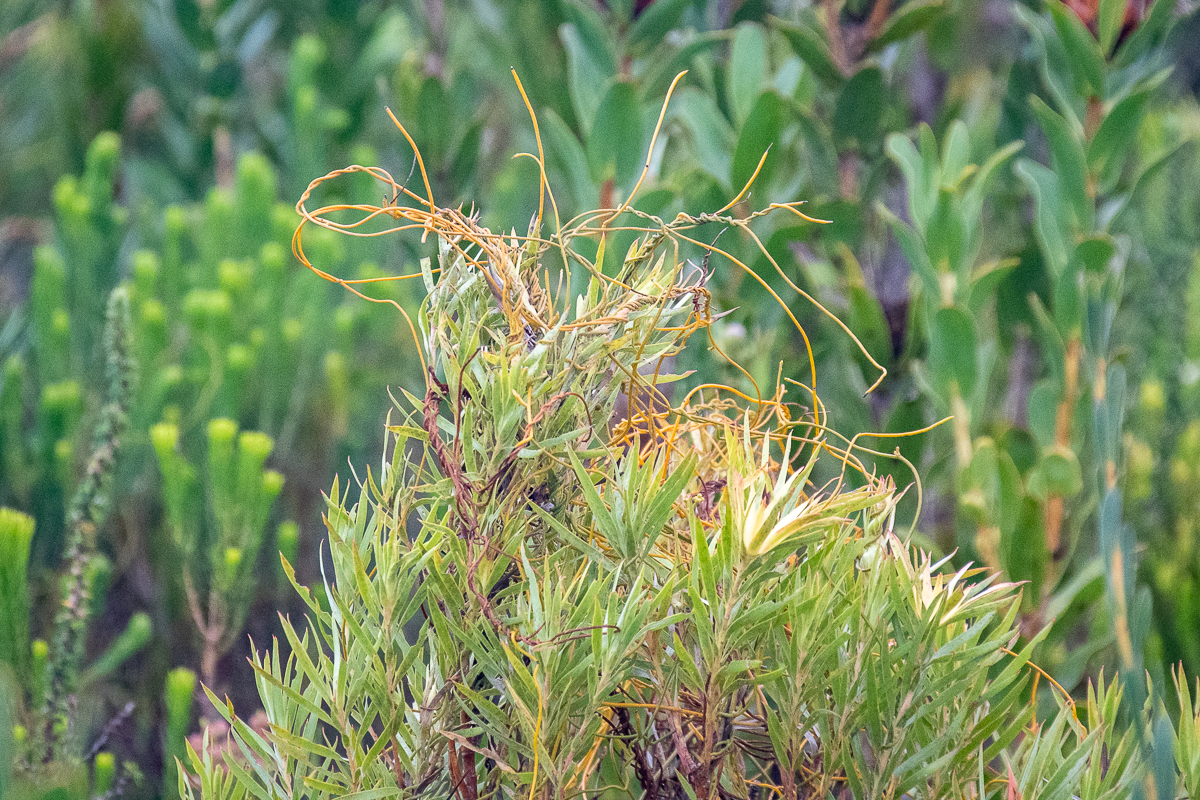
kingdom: Plantae
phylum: Tracheophyta
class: Magnoliopsida
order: Laurales
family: Lauraceae
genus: Cassytha
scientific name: Cassytha ciliolata
